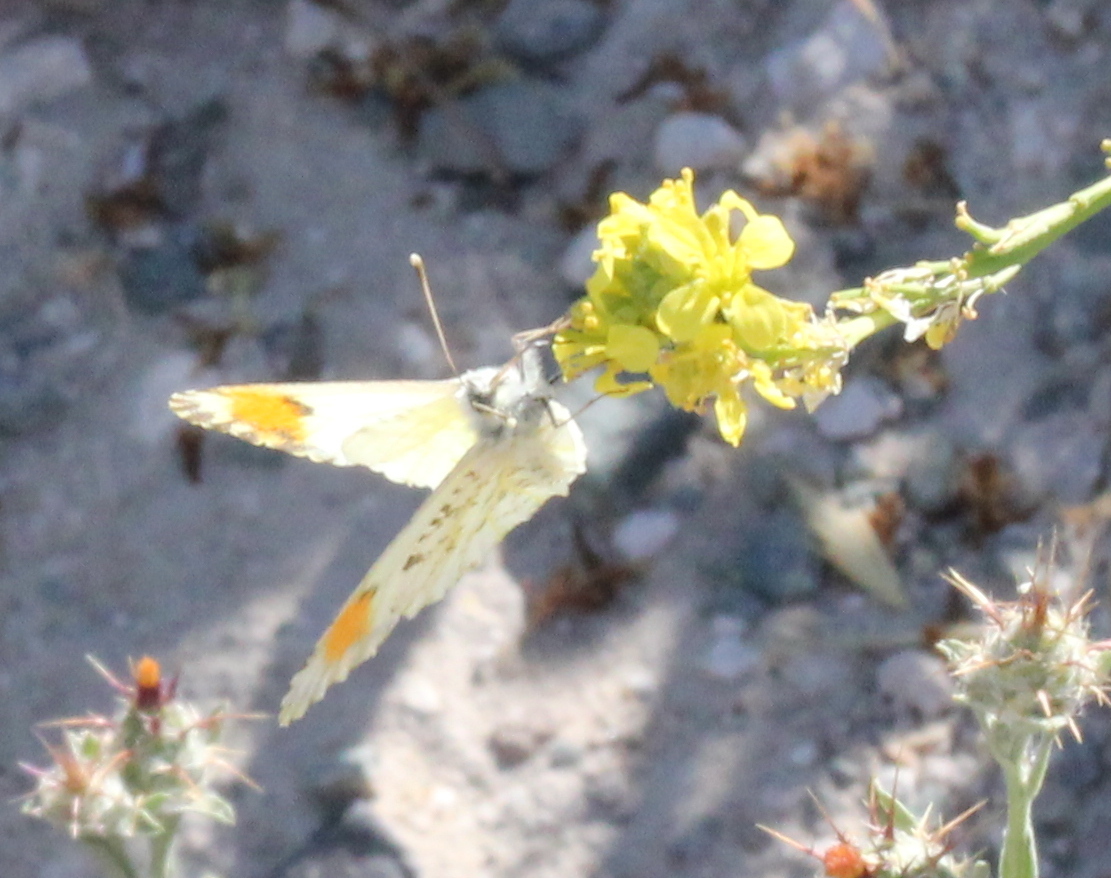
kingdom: Animalia
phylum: Arthropoda
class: Insecta
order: Lepidoptera
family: Pieridae
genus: Anthocharis
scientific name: Anthocharis sara
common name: Sara's orangetip
